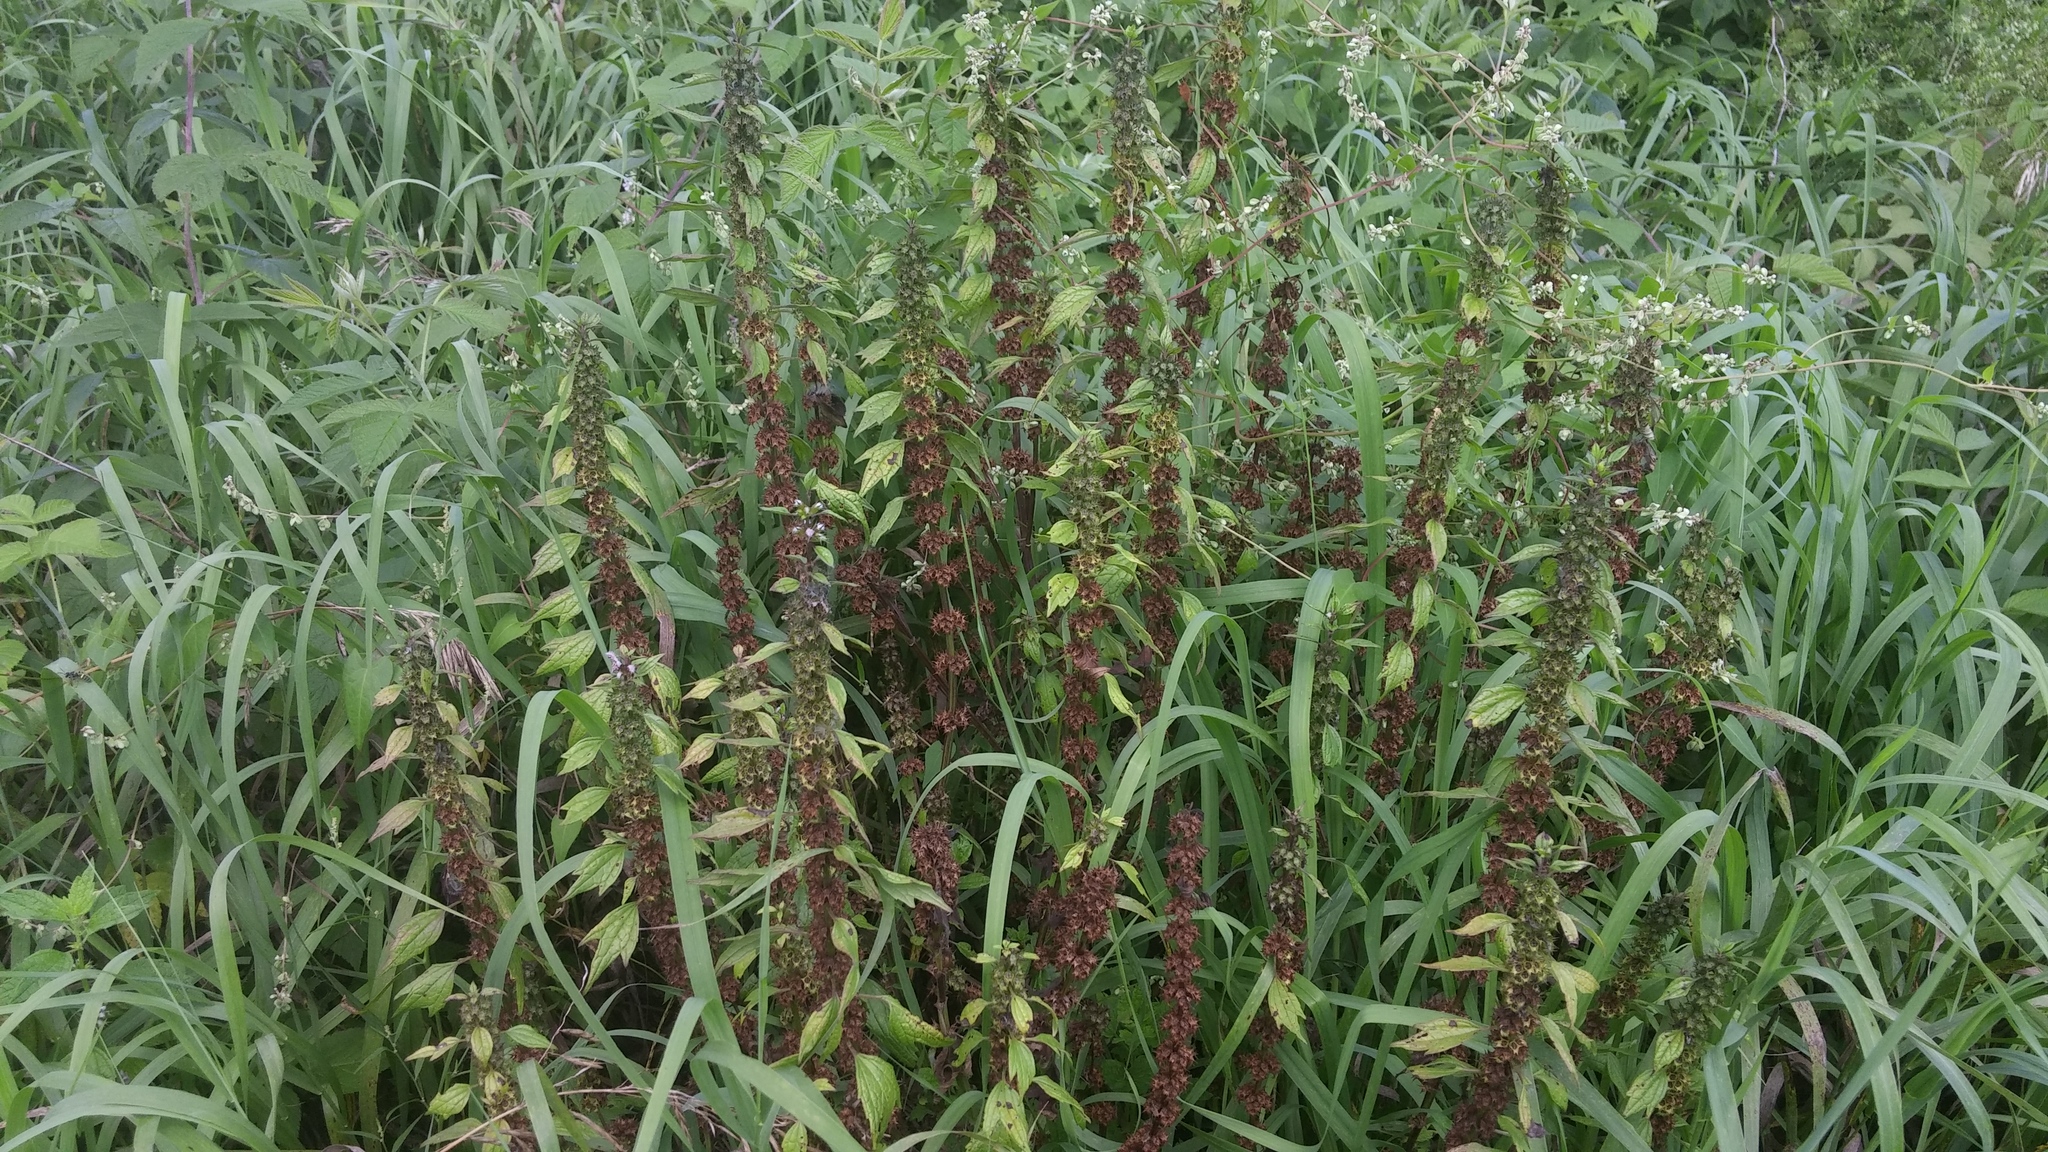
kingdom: Plantae
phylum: Tracheophyta
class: Magnoliopsida
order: Lamiales
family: Lamiaceae
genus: Leonurus
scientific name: Leonurus cardiaca
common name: Motherwort
